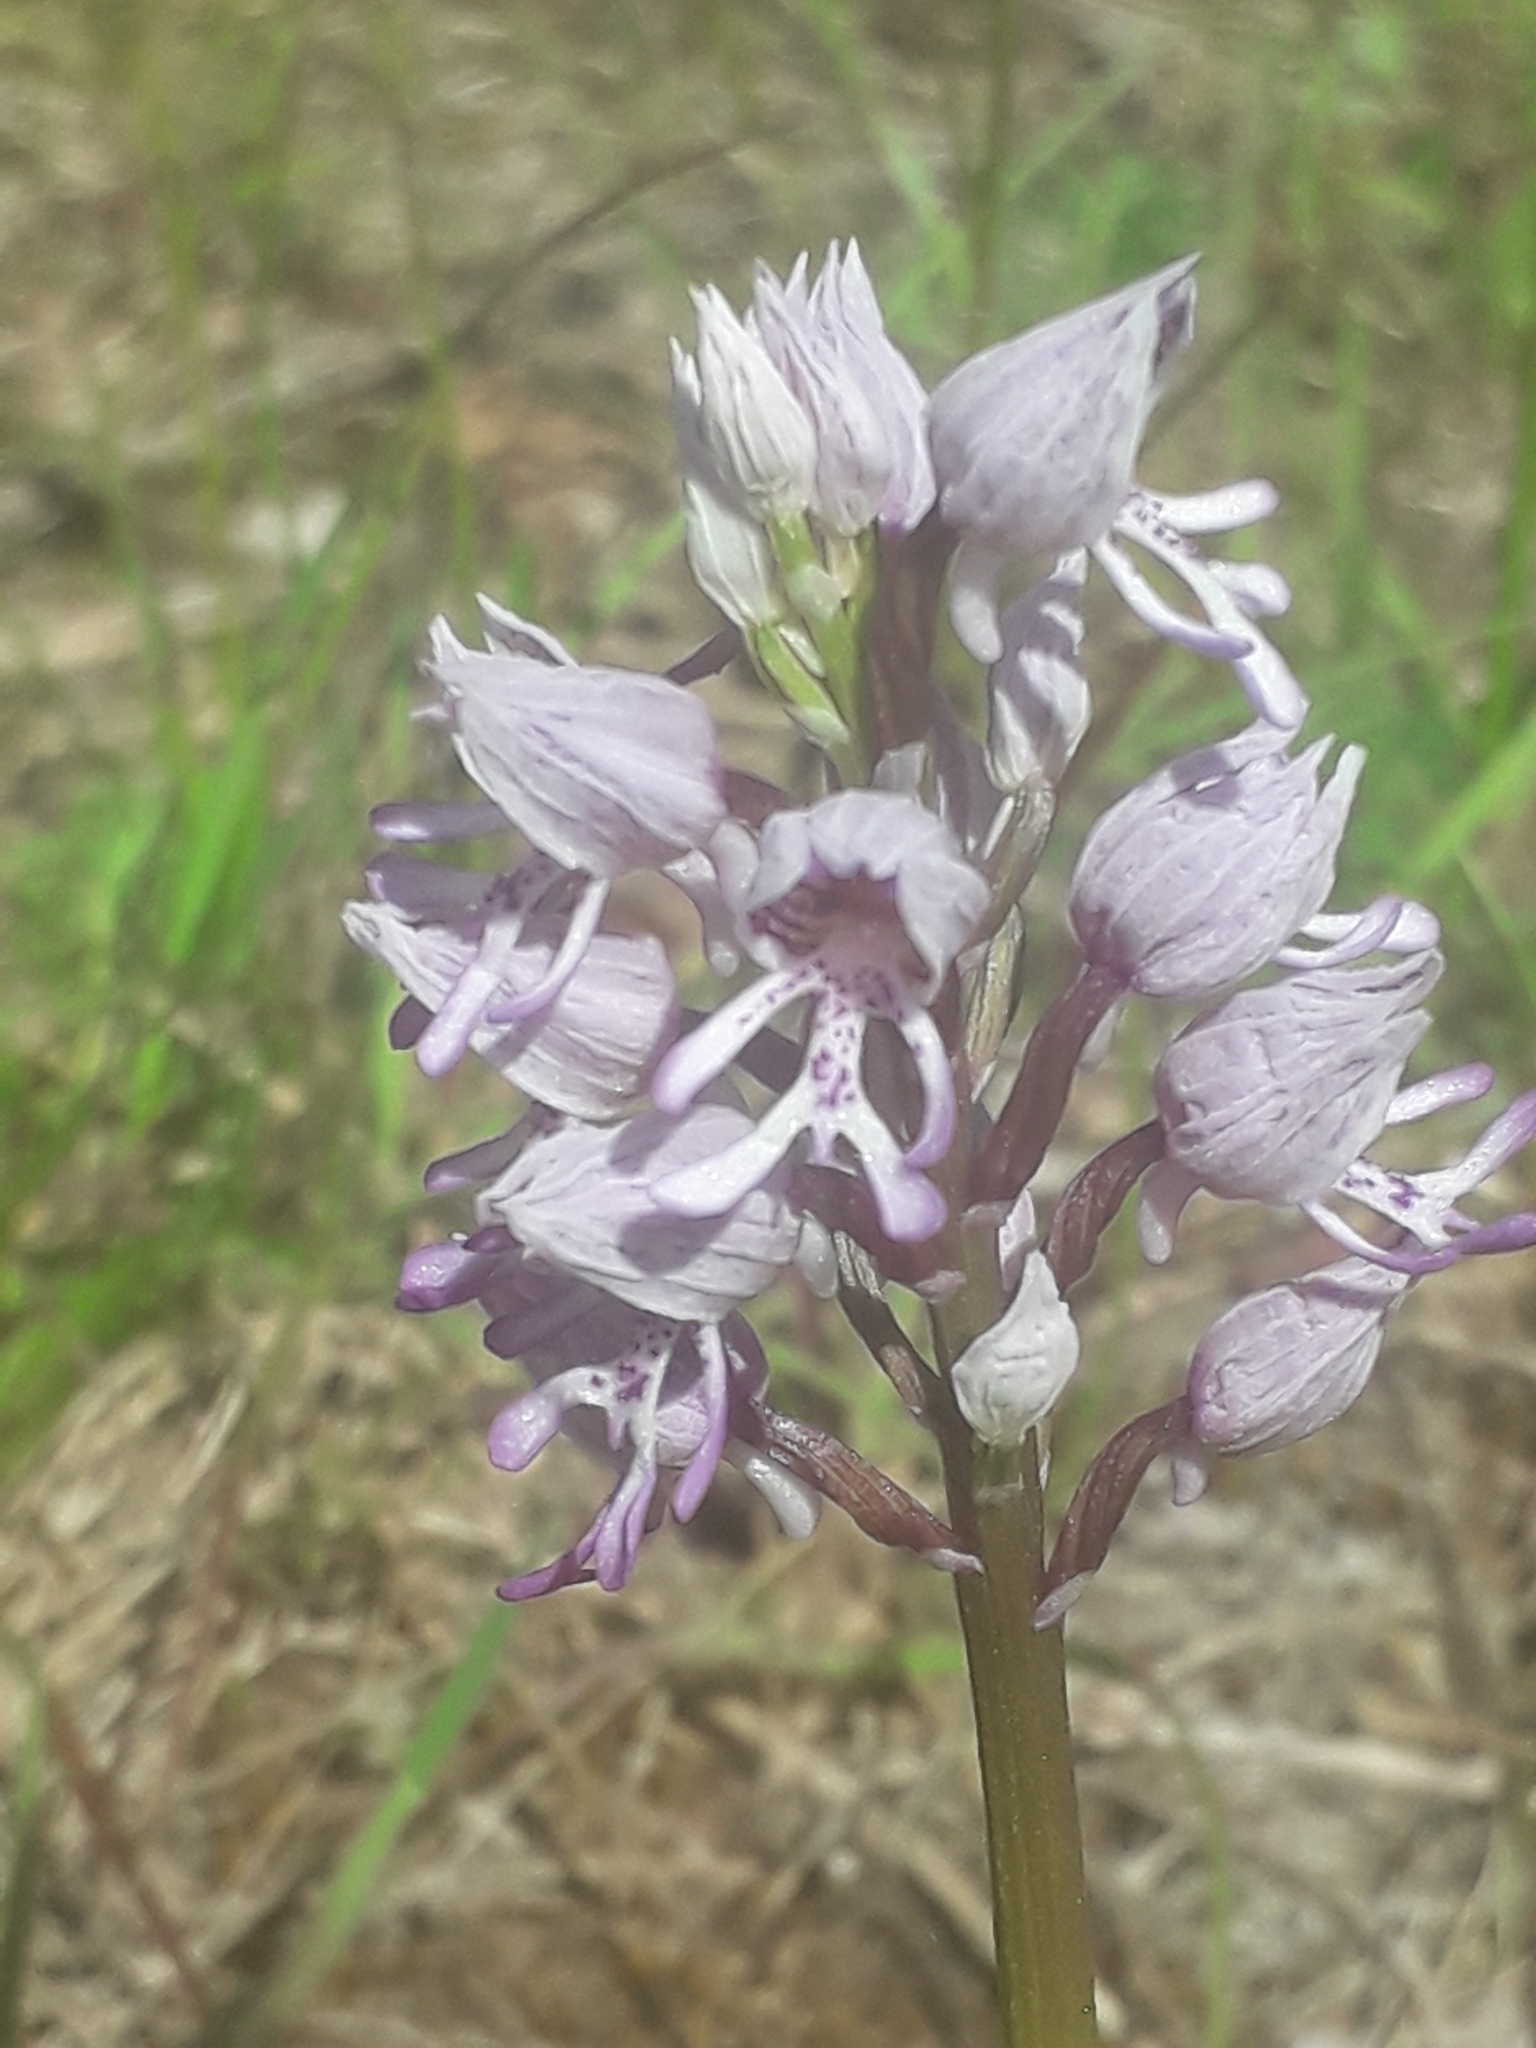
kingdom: Plantae
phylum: Tracheophyta
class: Liliopsida
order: Asparagales
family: Orchidaceae
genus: Orchis
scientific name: Orchis simia
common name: Monkey orchid
